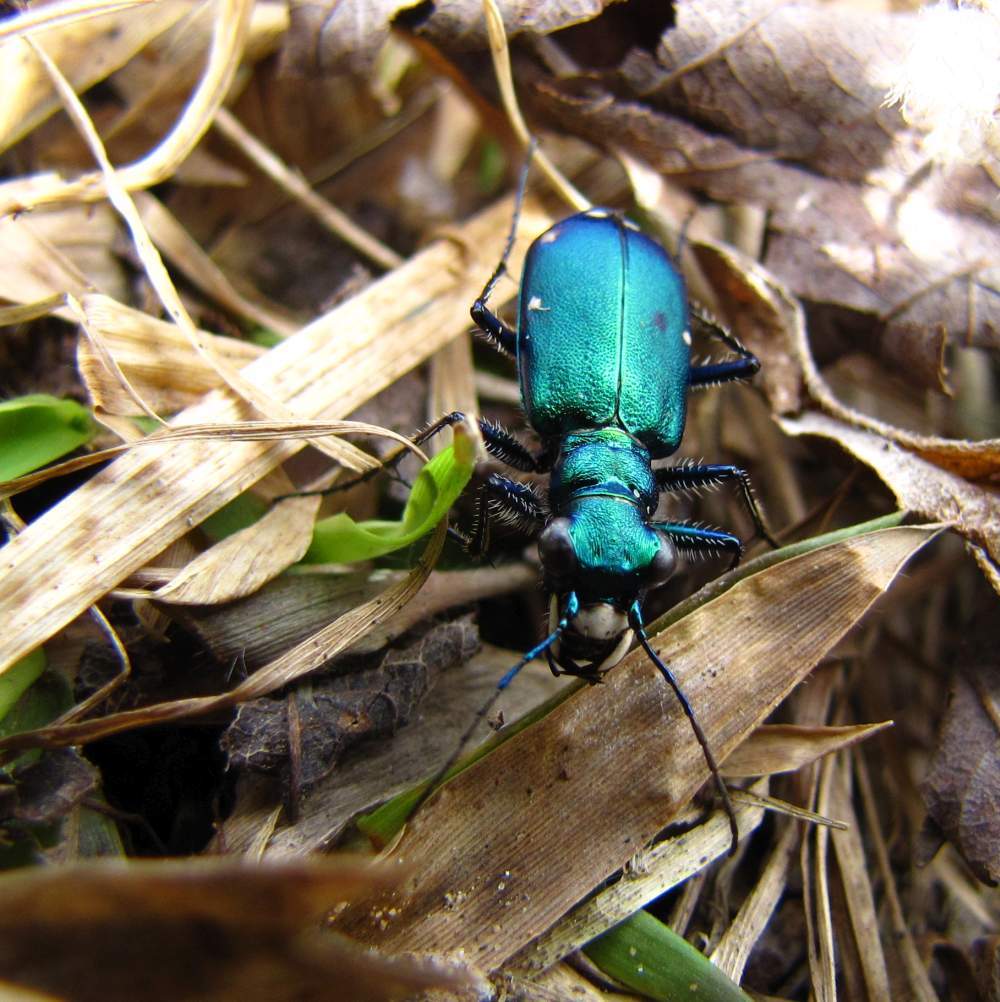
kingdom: Animalia
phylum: Arthropoda
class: Insecta
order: Coleoptera
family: Carabidae
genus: Cicindela
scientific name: Cicindela sexguttata
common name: Six-spotted tiger beetle
